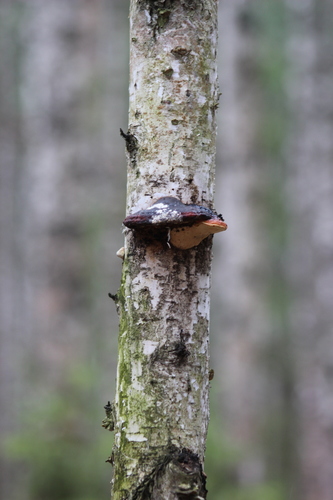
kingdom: Fungi
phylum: Basidiomycota
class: Agaricomycetes
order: Polyporales
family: Fomitopsidaceae
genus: Fomitopsis
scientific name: Fomitopsis pinicola
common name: Red-belted bracket
